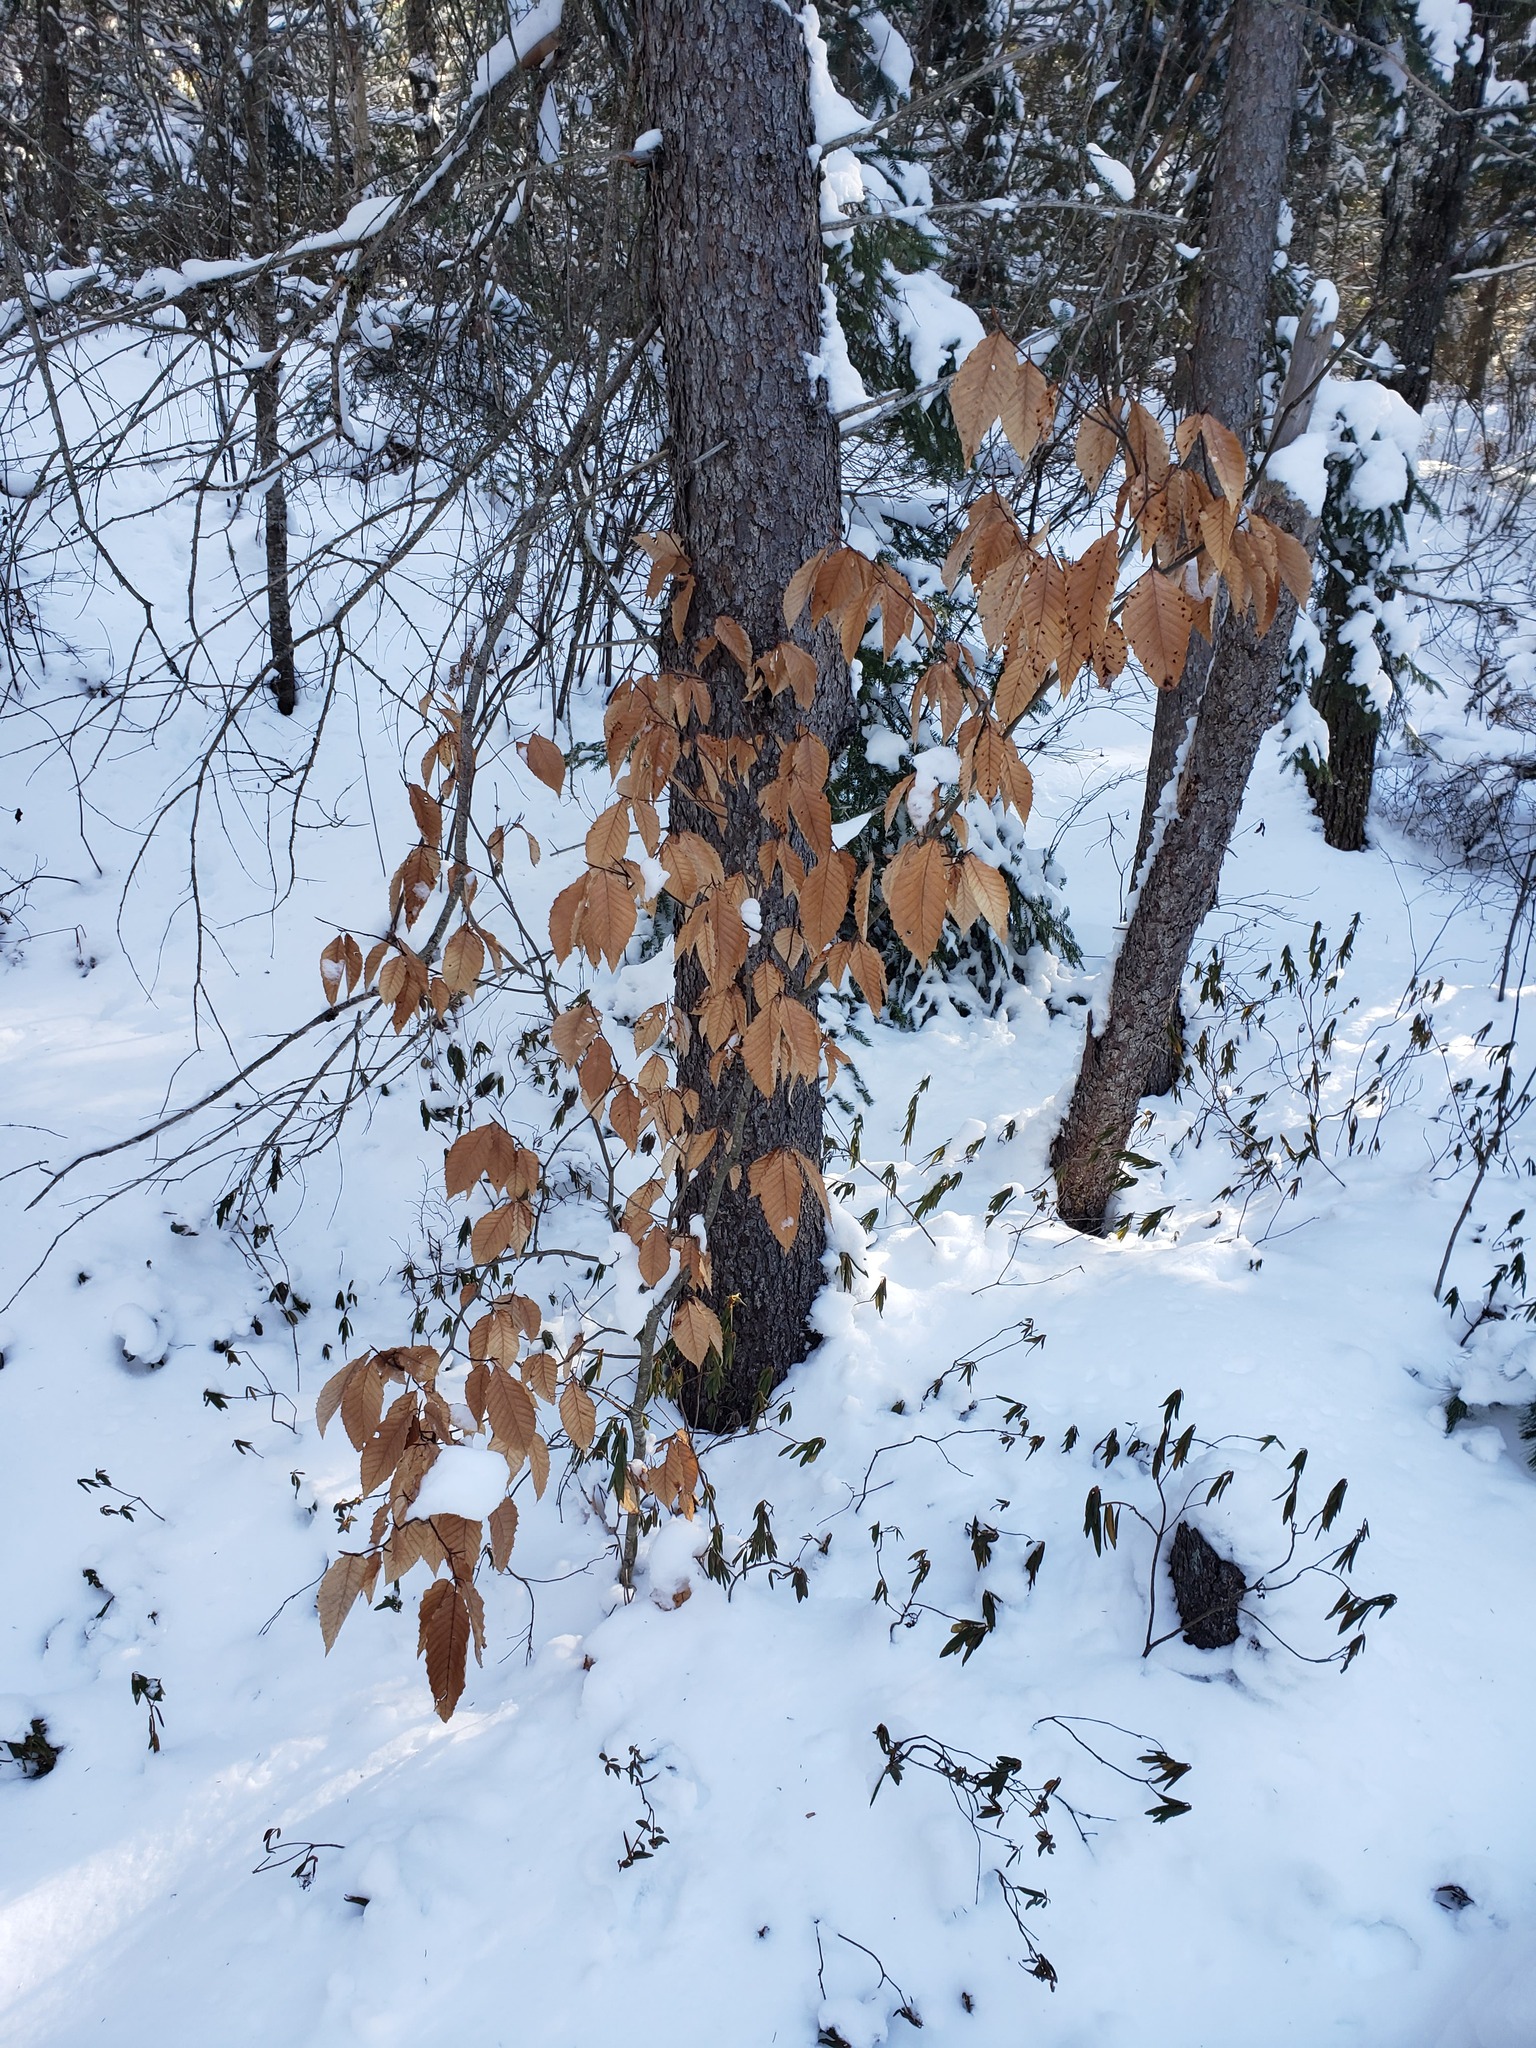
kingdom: Plantae
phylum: Tracheophyta
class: Magnoliopsida
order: Fagales
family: Fagaceae
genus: Fagus
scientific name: Fagus grandifolia
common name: American beech
